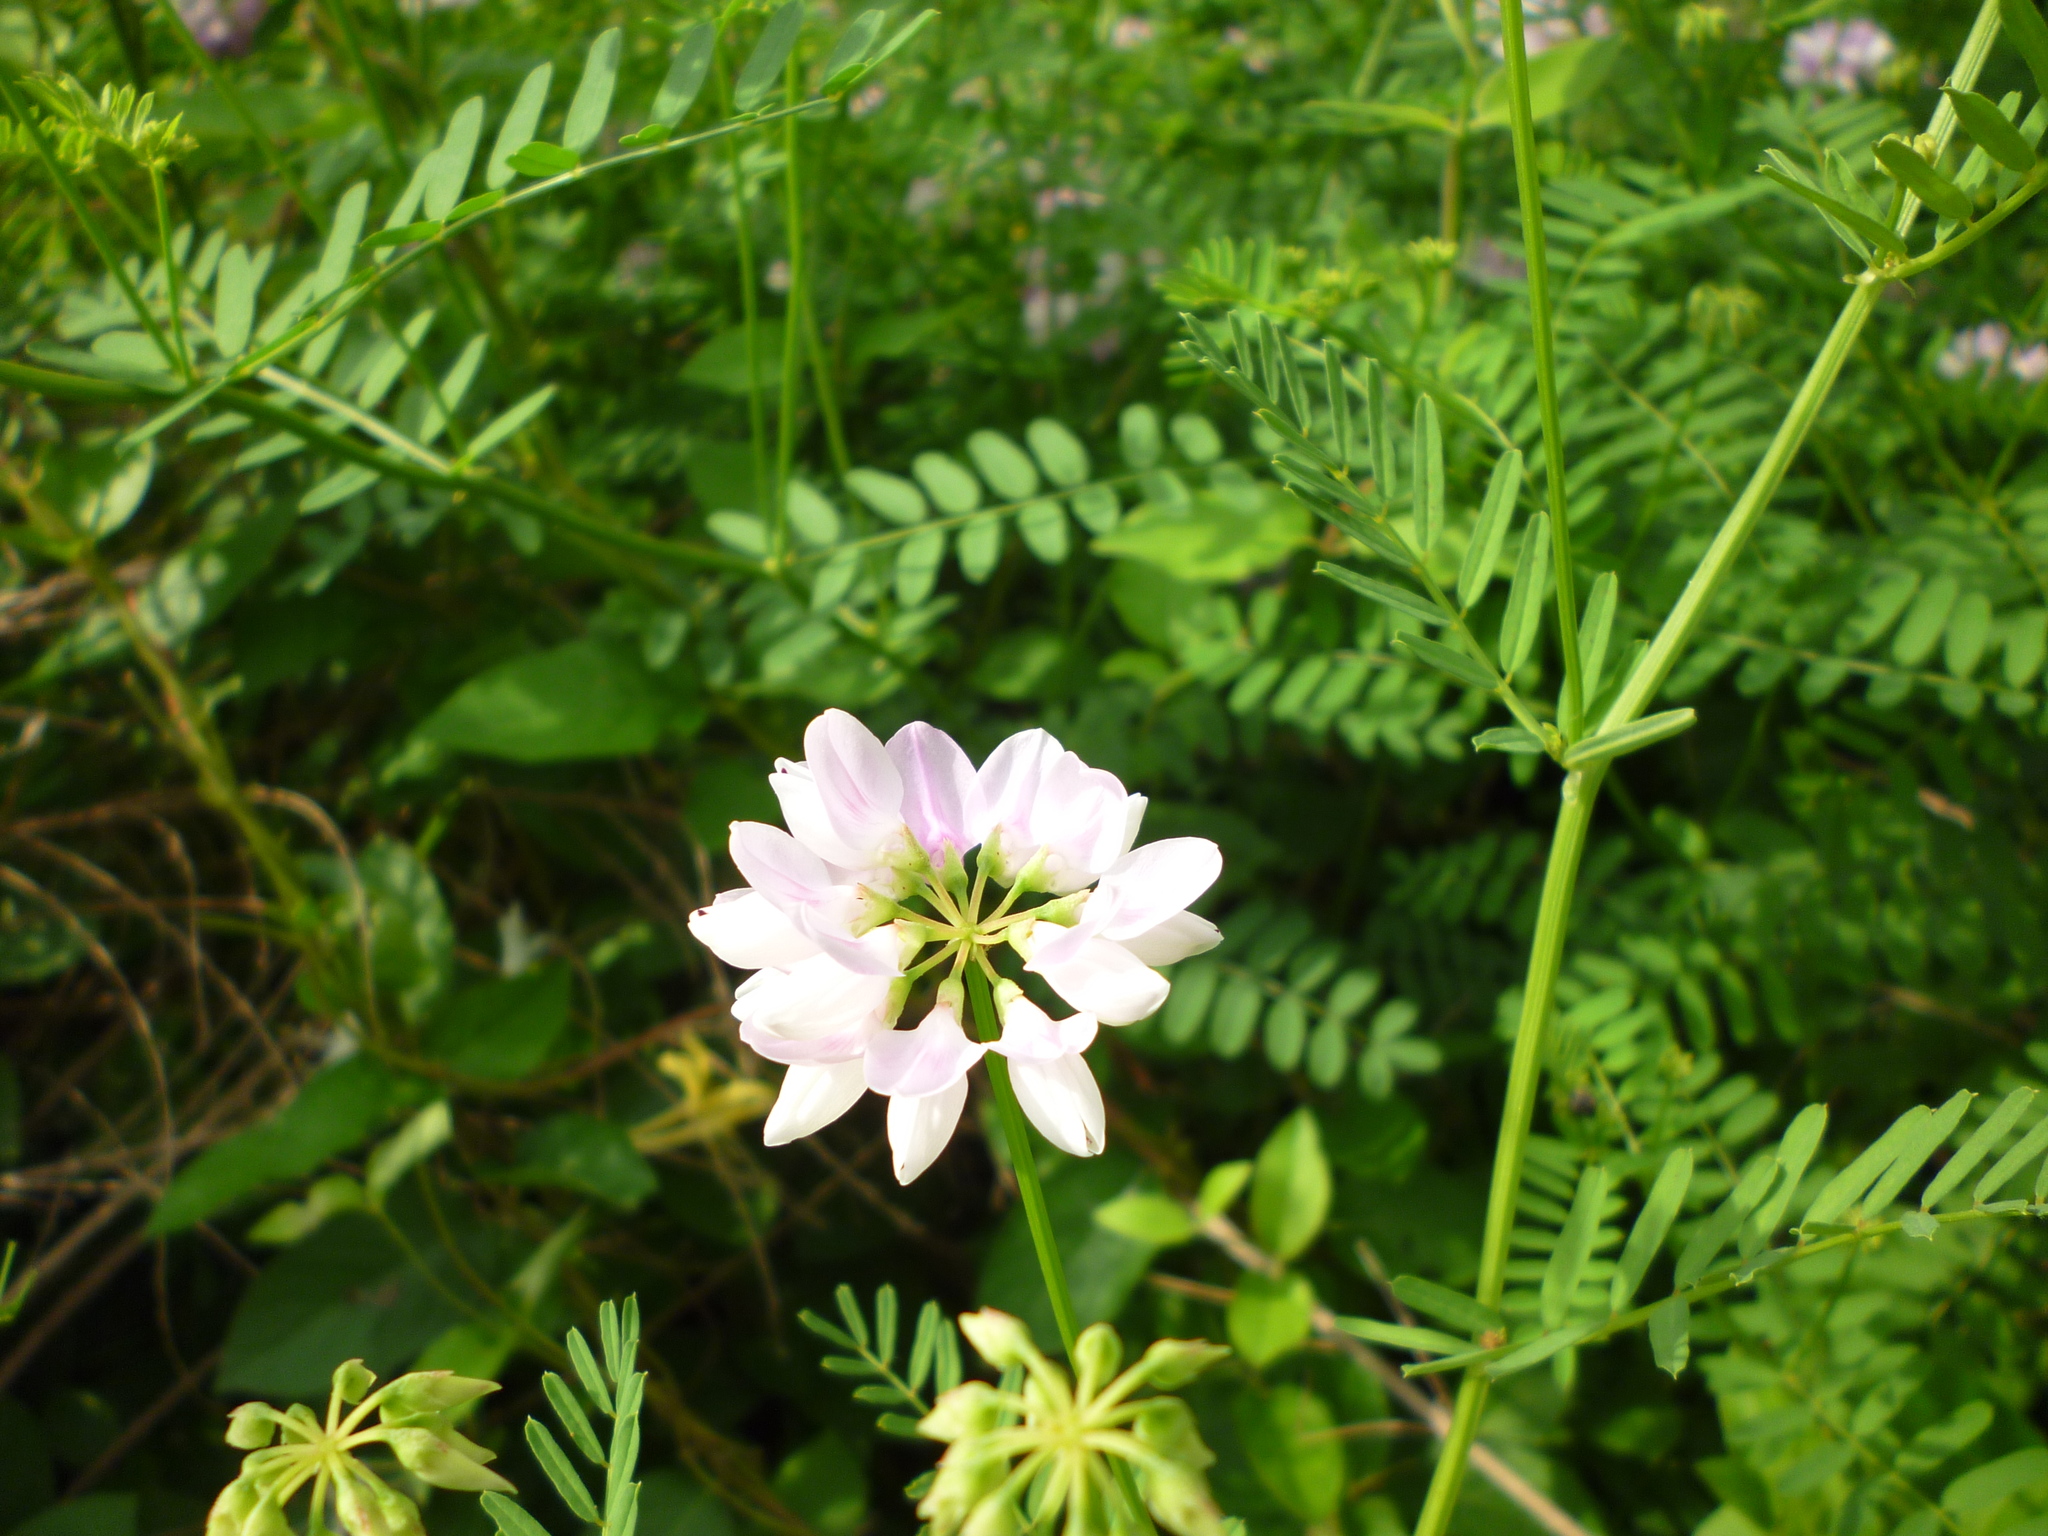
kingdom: Plantae
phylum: Tracheophyta
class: Magnoliopsida
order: Fabales
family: Fabaceae
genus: Coronilla
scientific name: Coronilla varia
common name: Crownvetch
